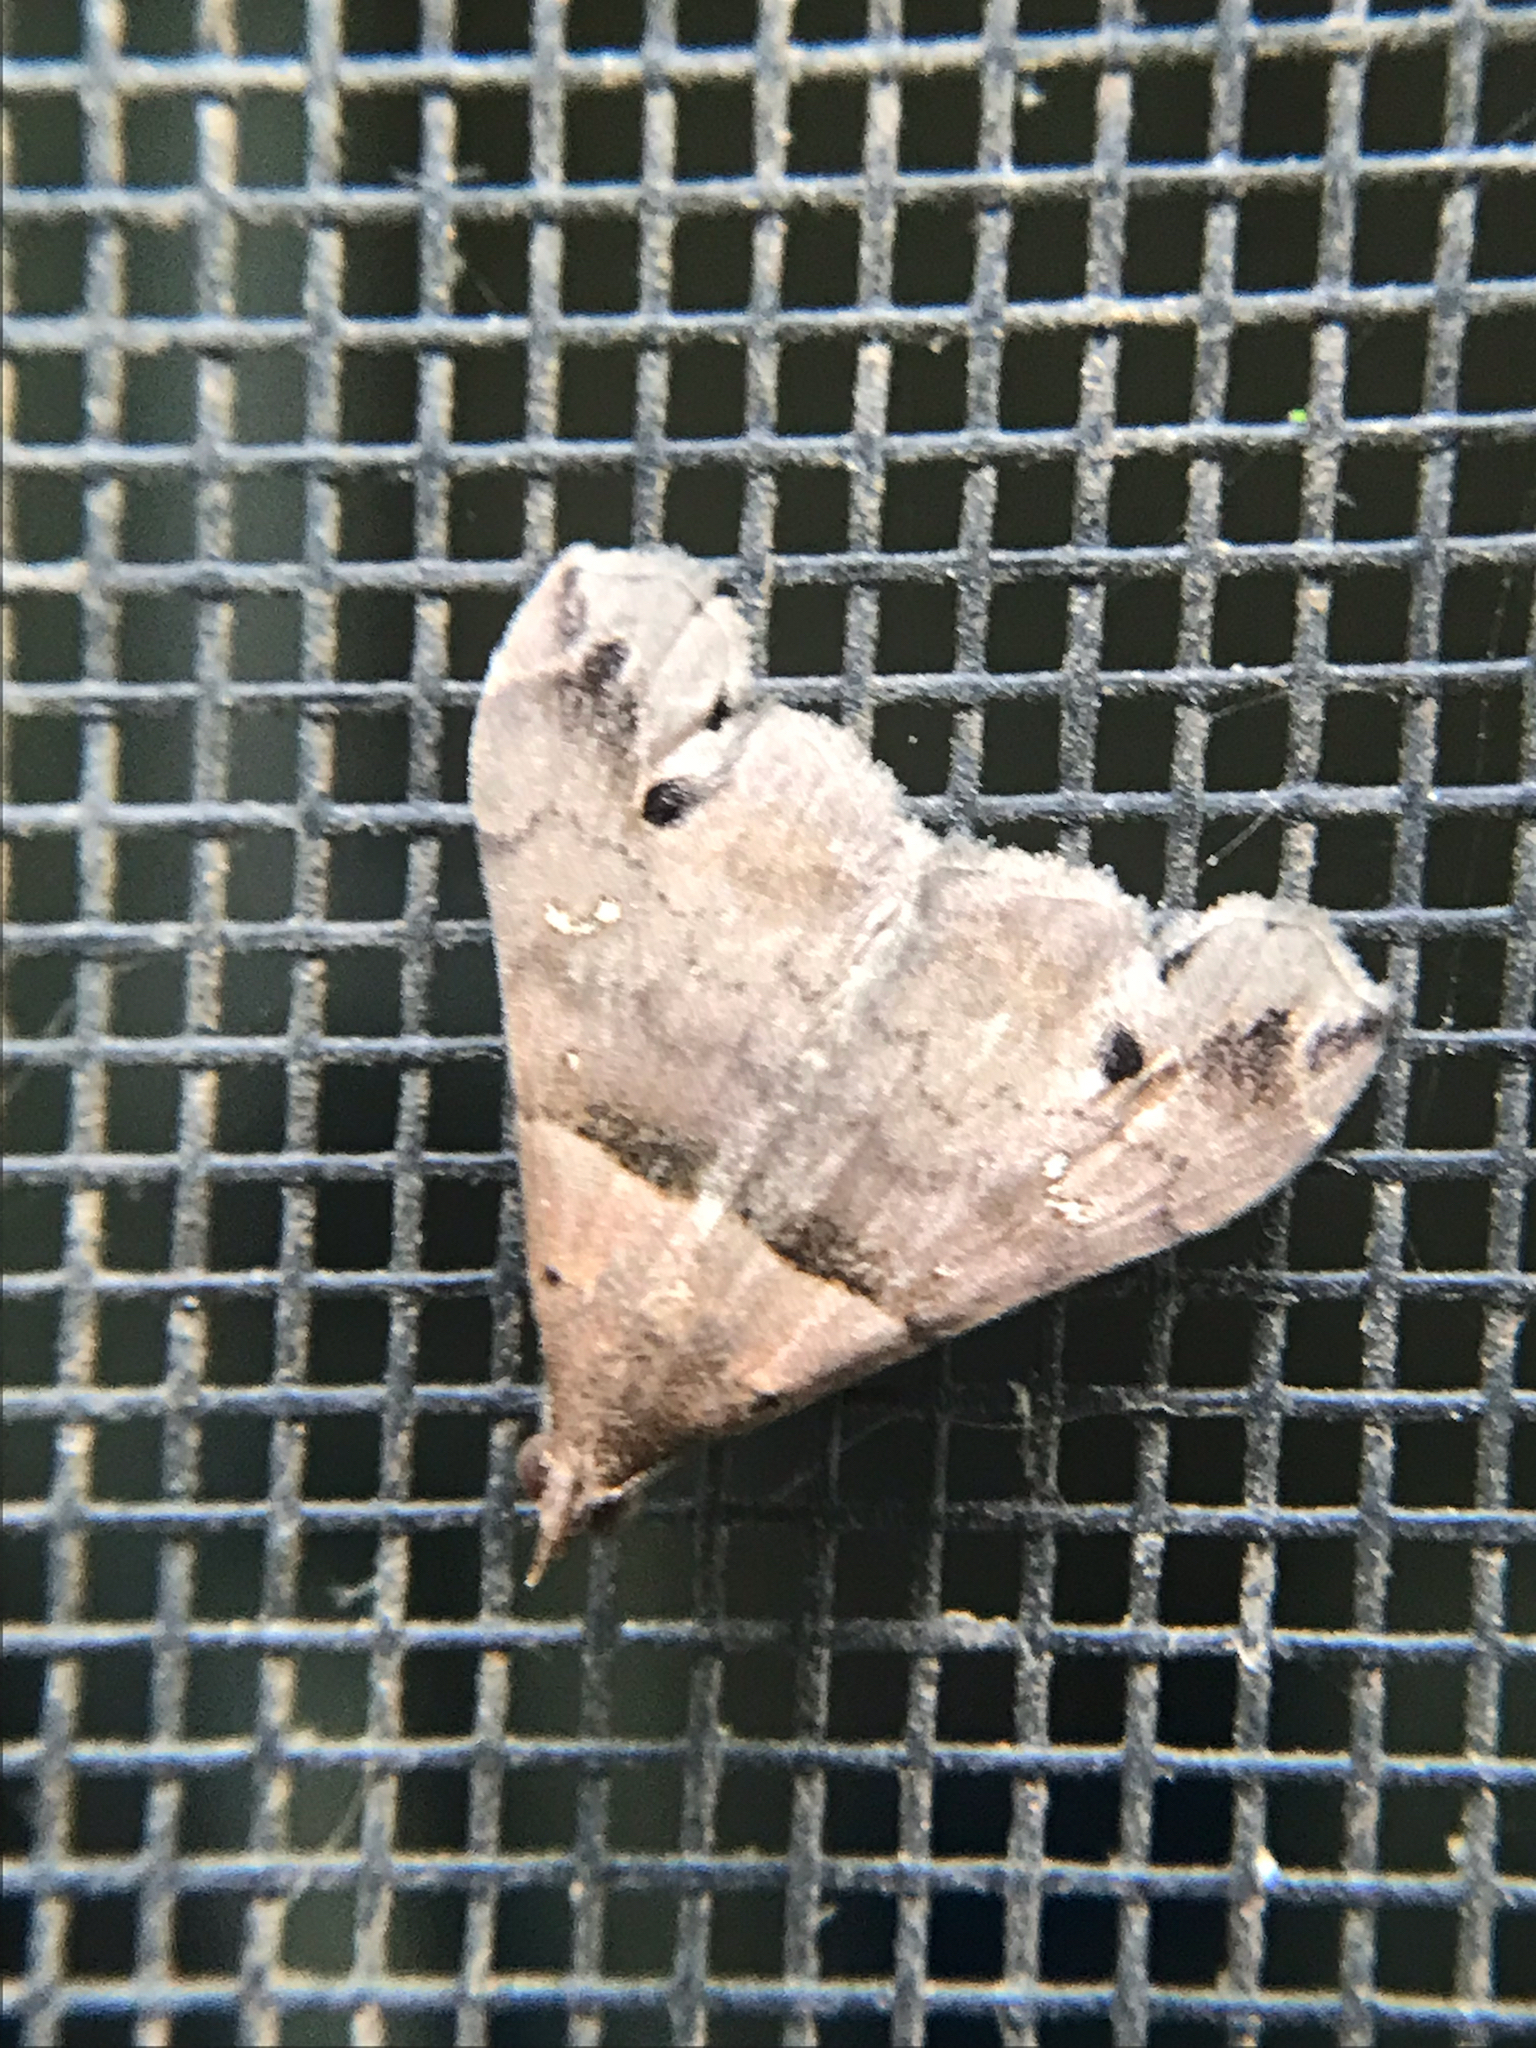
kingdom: Animalia
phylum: Arthropoda
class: Insecta
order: Lepidoptera
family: Erebidae
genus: Lascoria
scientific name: Lascoria ambigualis
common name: Ambiguous moth
